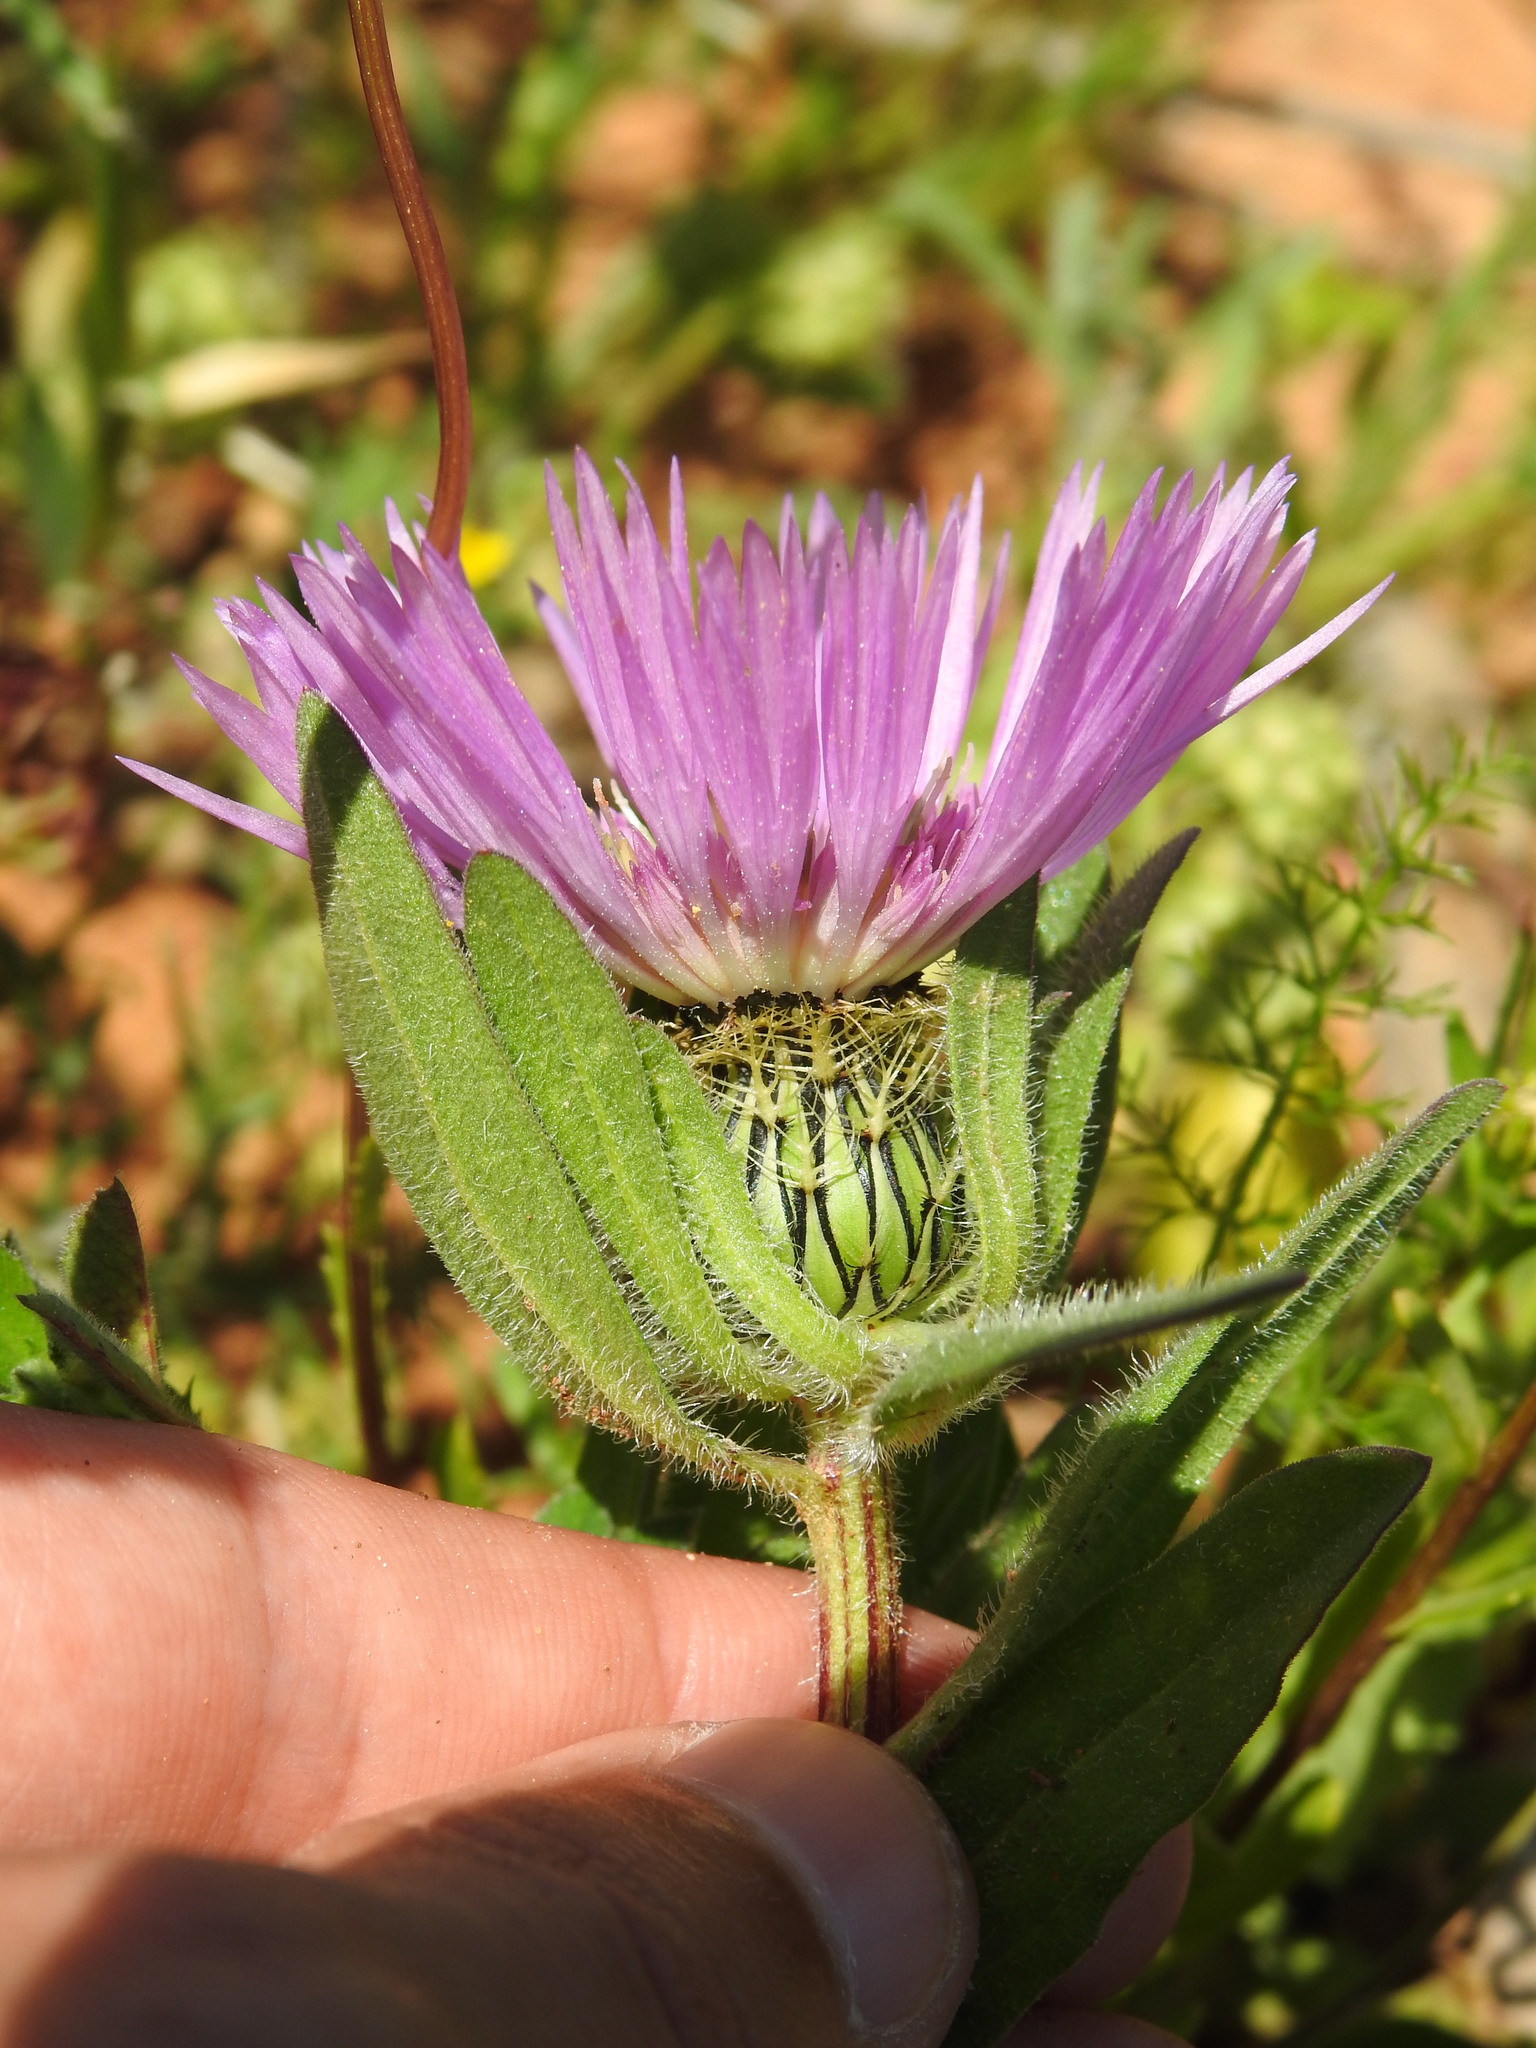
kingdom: Plantae
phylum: Tracheophyta
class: Magnoliopsida
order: Asterales
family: Asteraceae
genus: Centaurea
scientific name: Centaurea pullata
